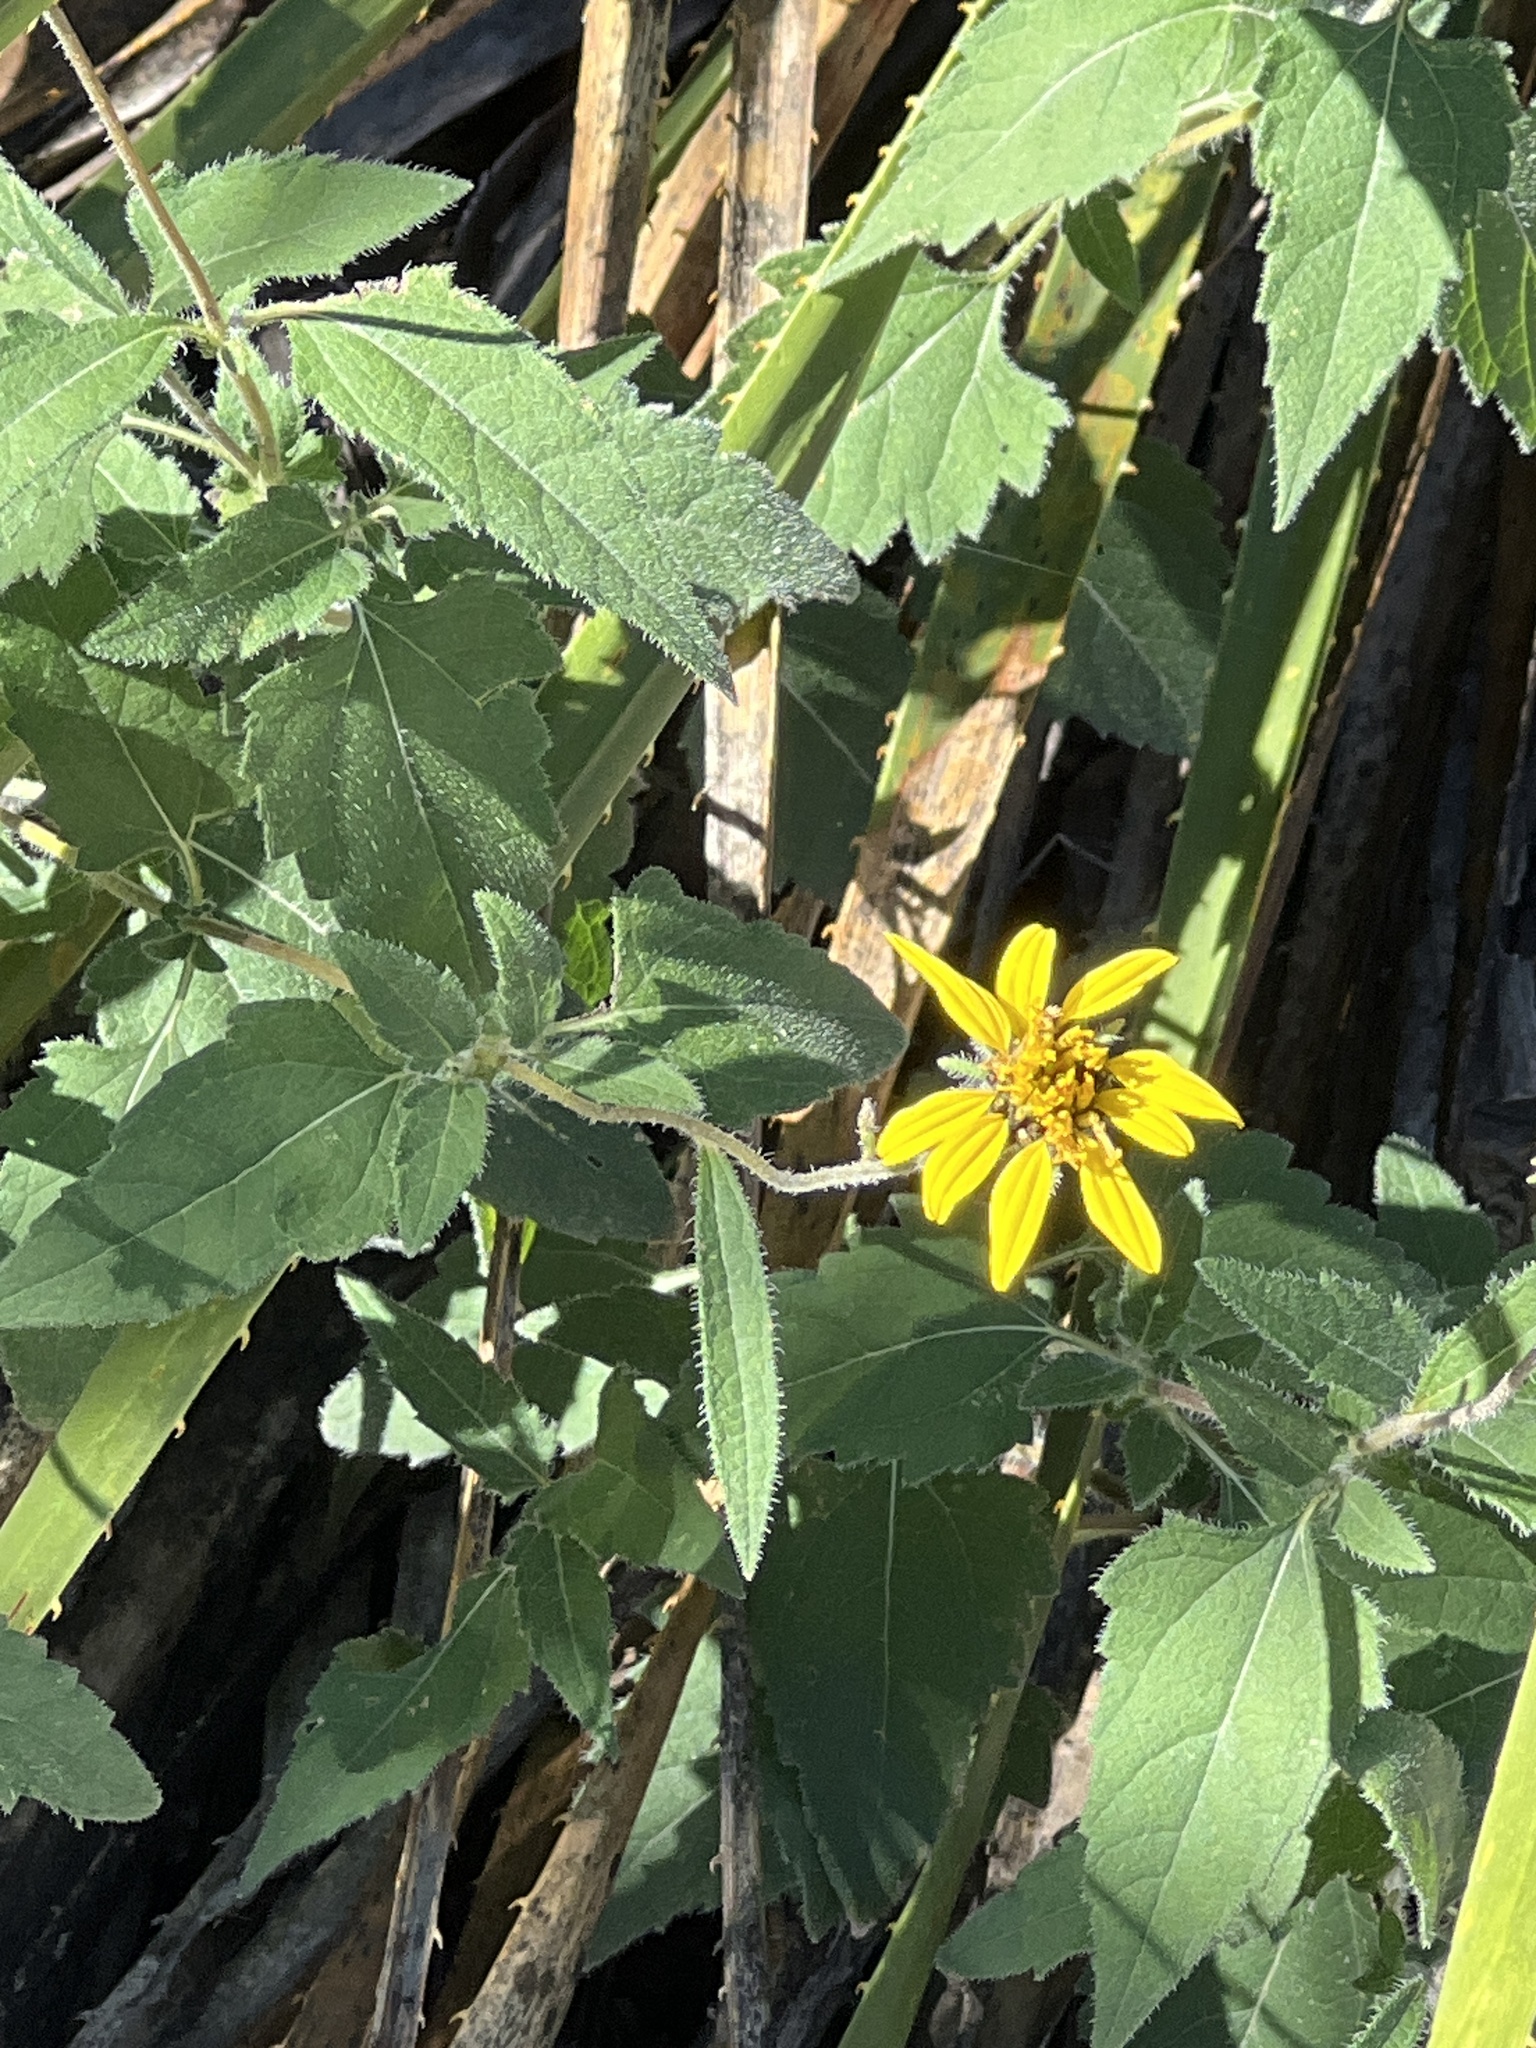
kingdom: Plantae
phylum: Tracheophyta
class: Magnoliopsida
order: Asterales
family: Asteraceae
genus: Simsia
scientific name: Simsia calva
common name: Awnless bush-sunflower
